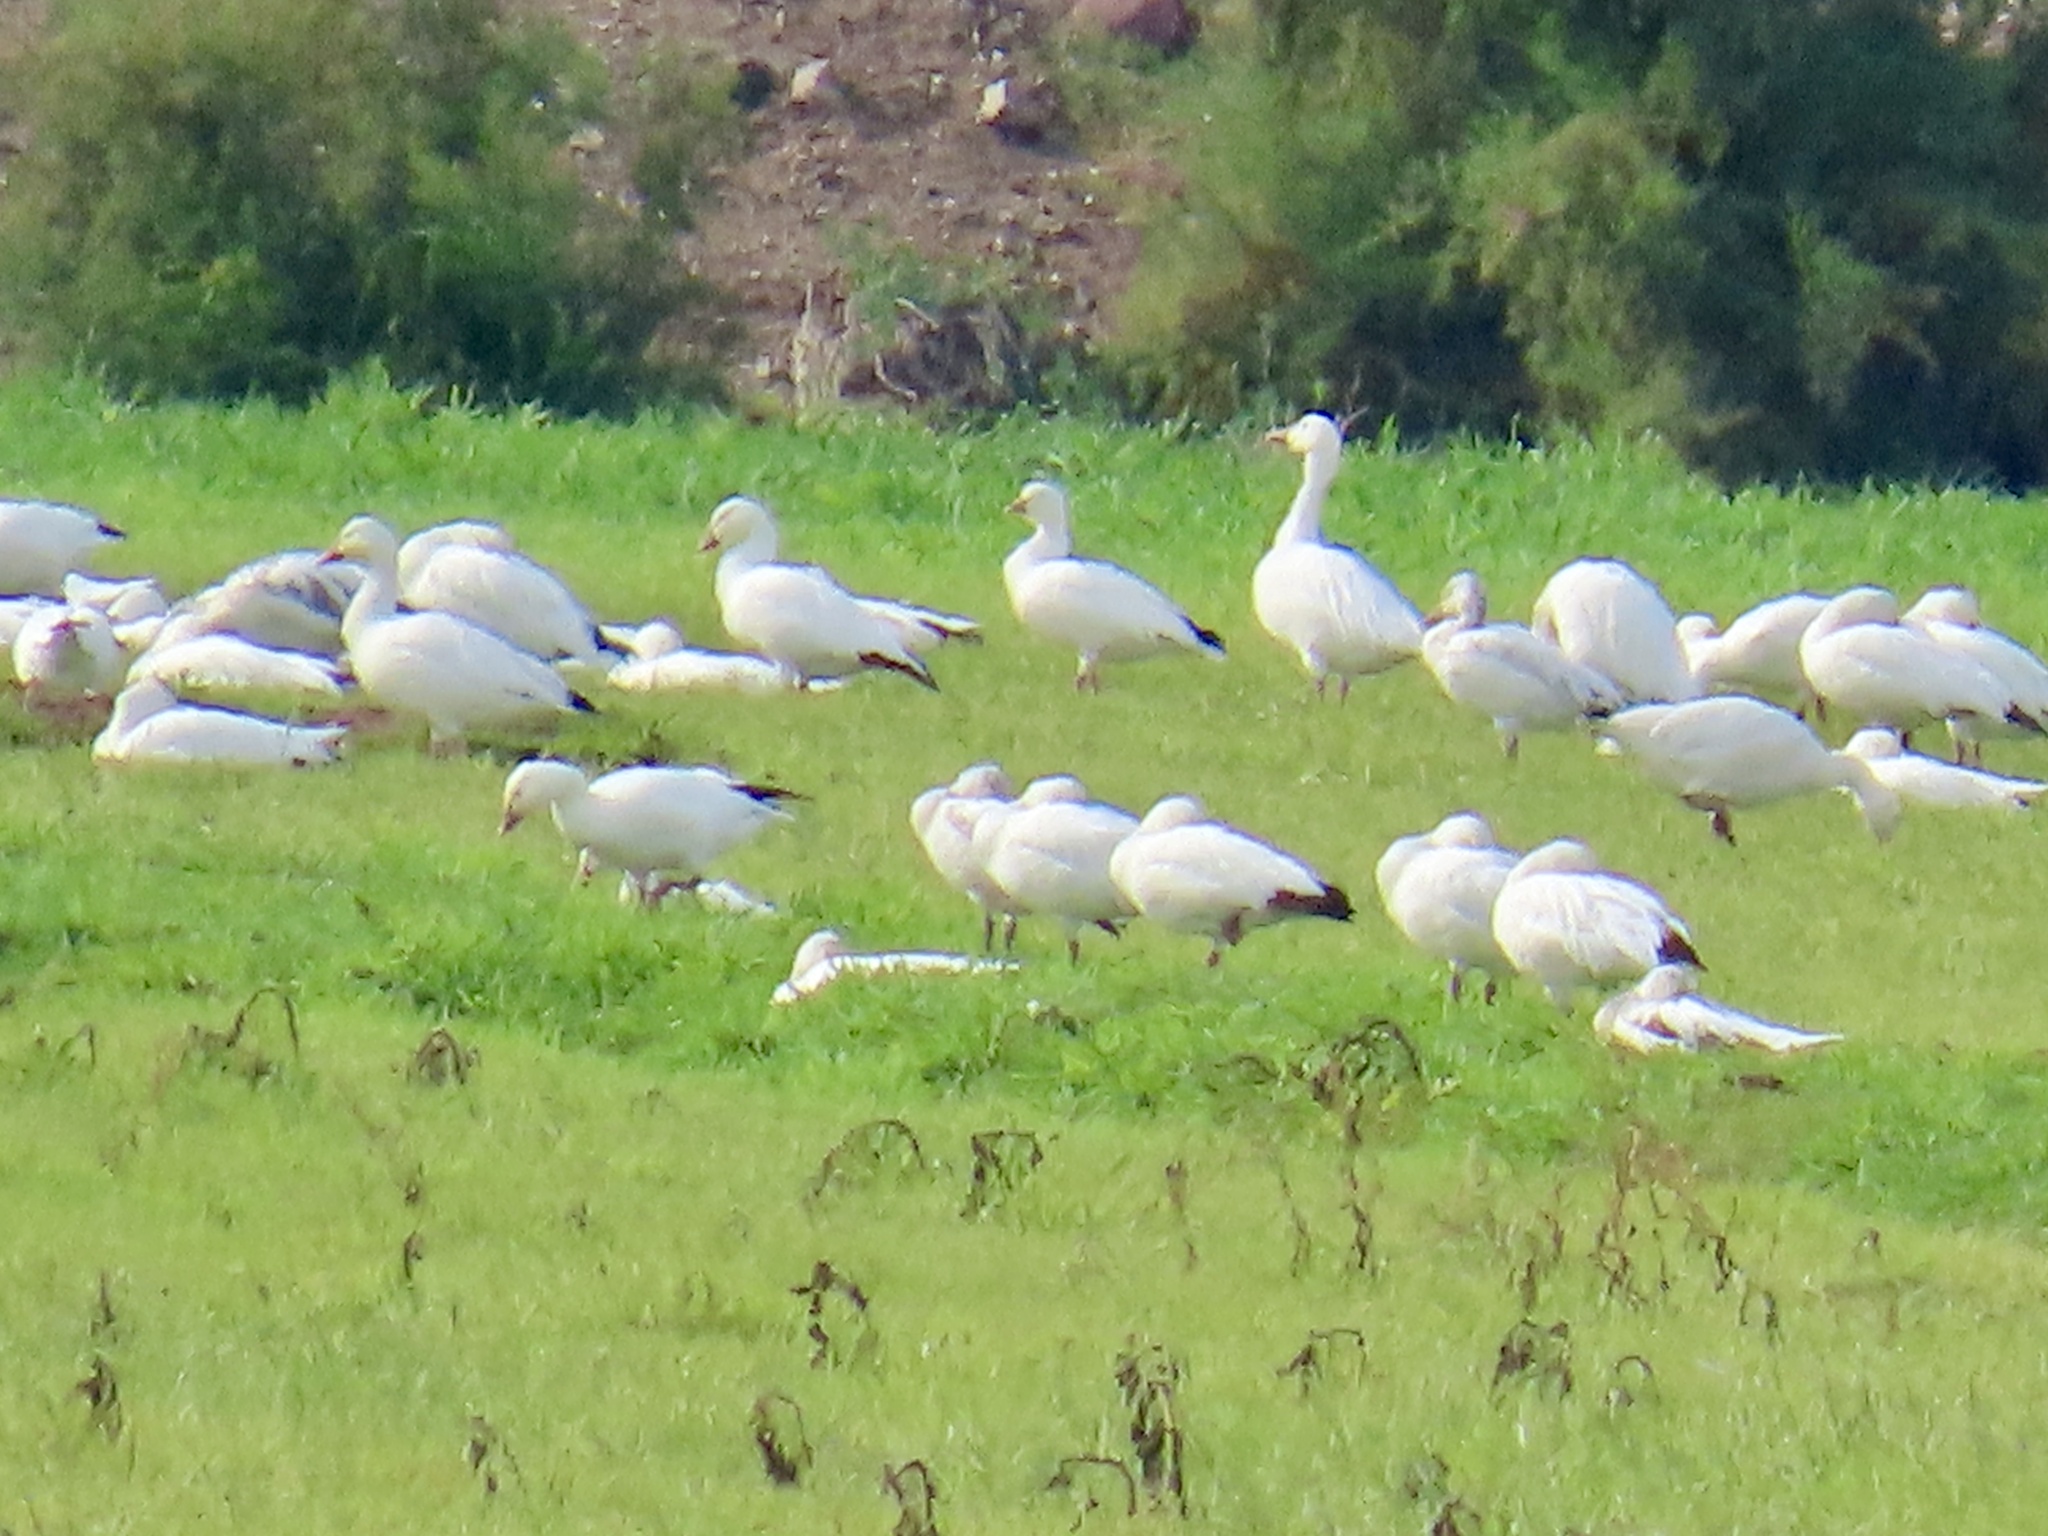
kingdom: Animalia
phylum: Chordata
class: Aves
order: Anseriformes
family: Anatidae
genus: Anser
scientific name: Anser caerulescens
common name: Snow goose
